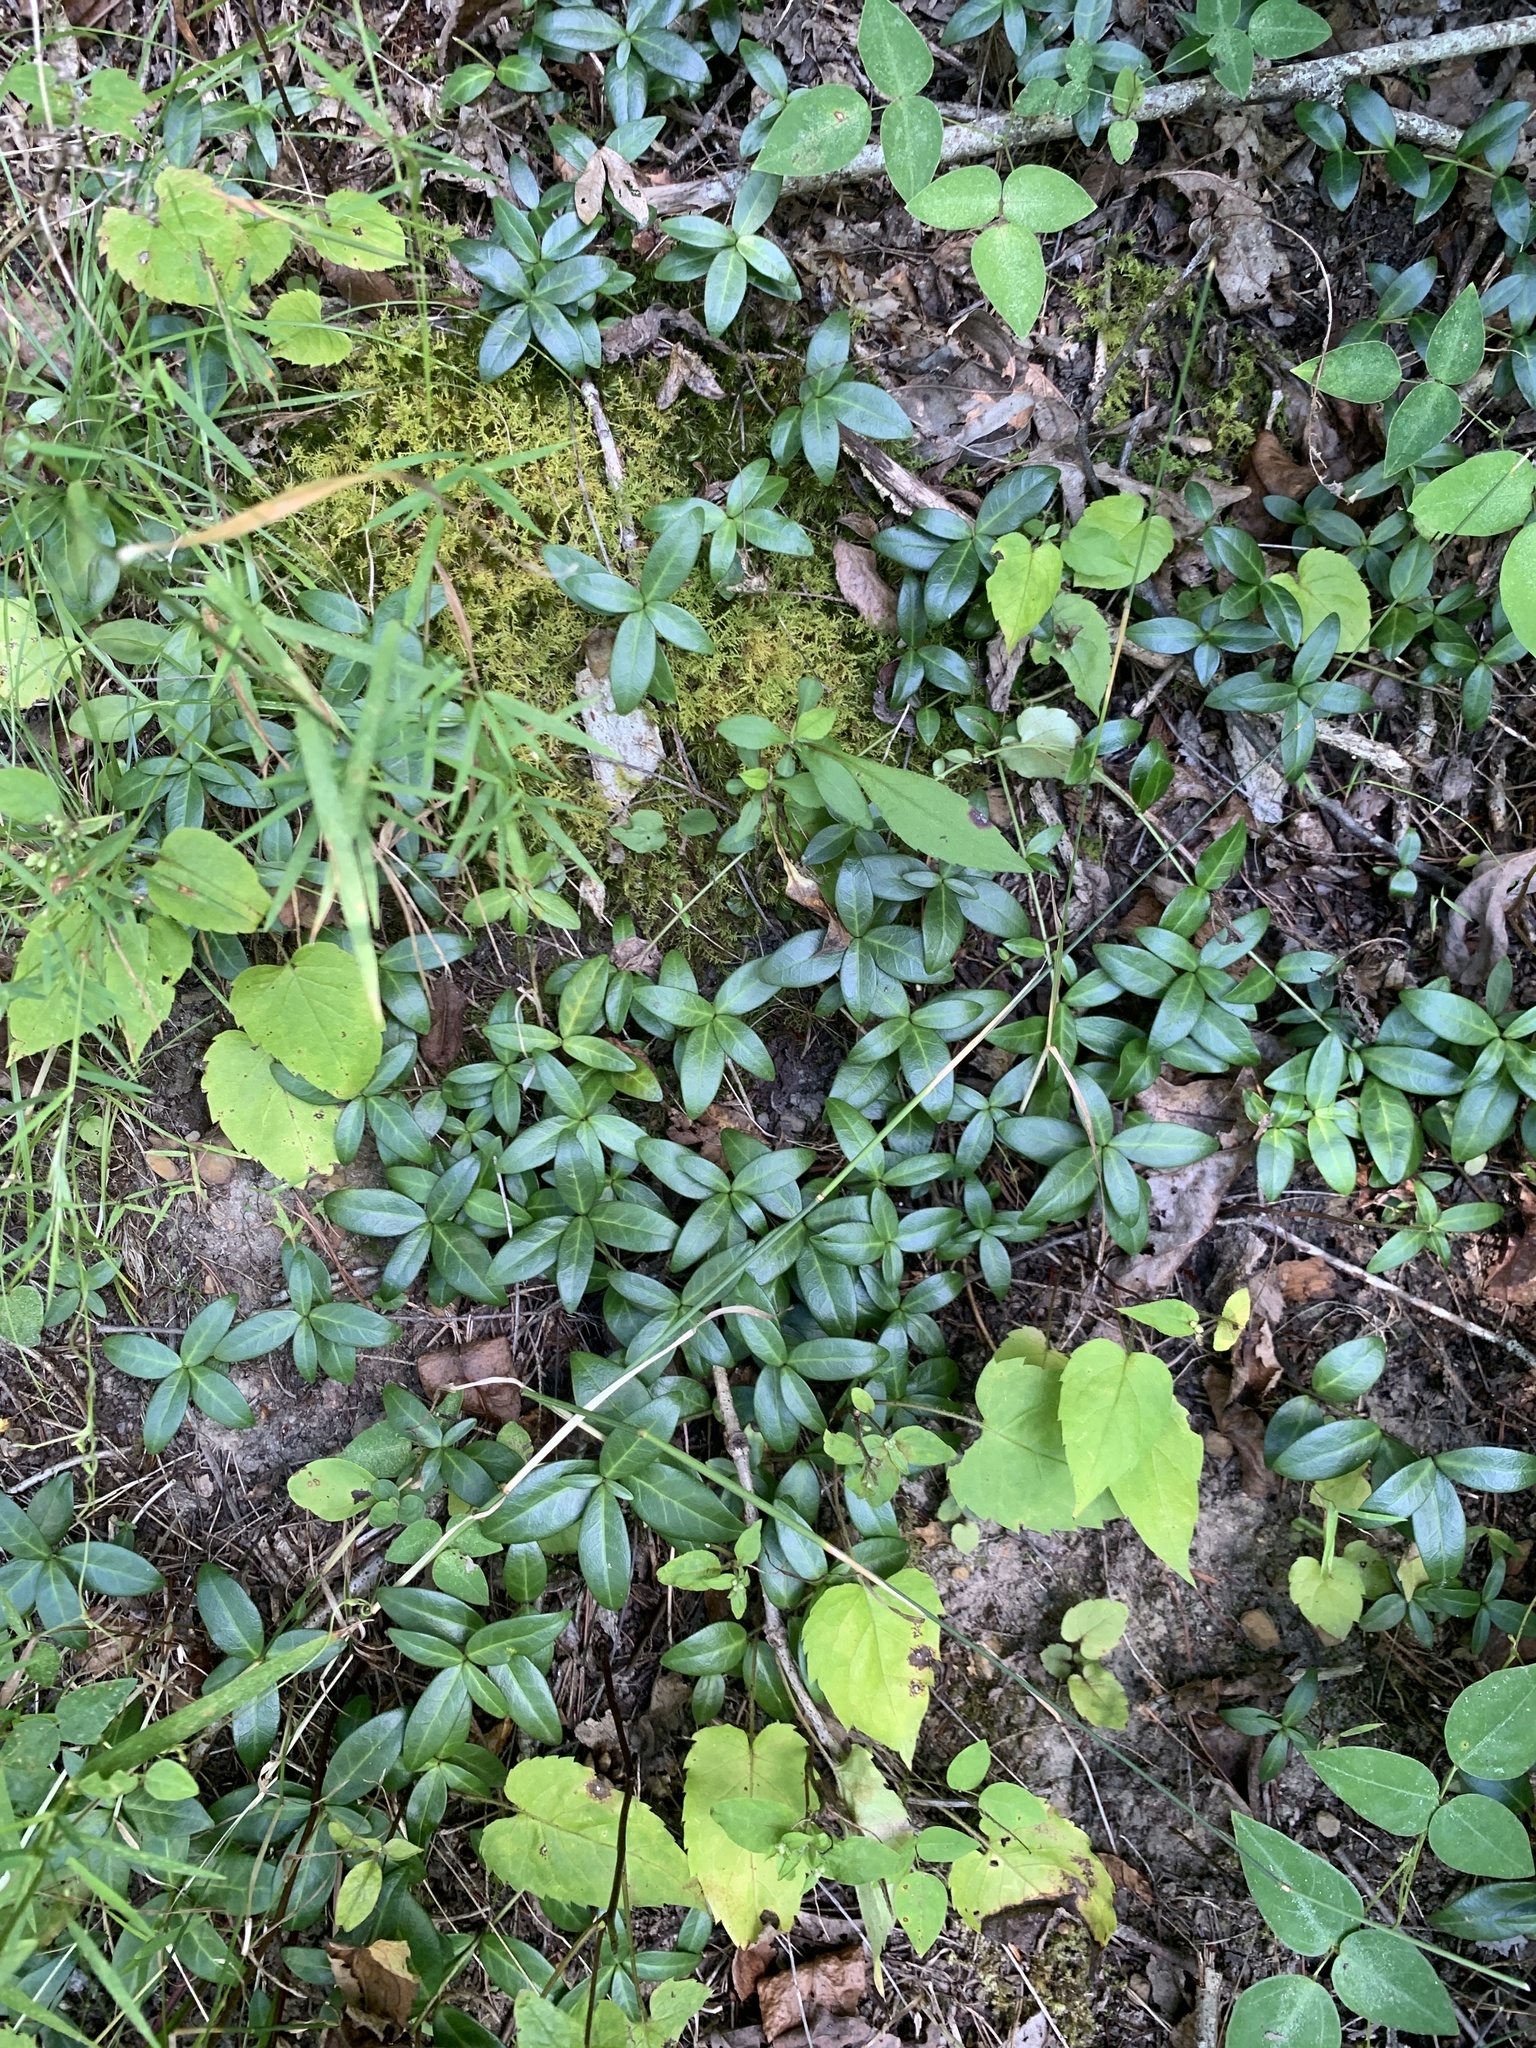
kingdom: Plantae
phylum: Tracheophyta
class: Magnoliopsida
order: Gentianales
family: Apocynaceae
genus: Vinca
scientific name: Vinca minor
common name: Lesser periwinkle
